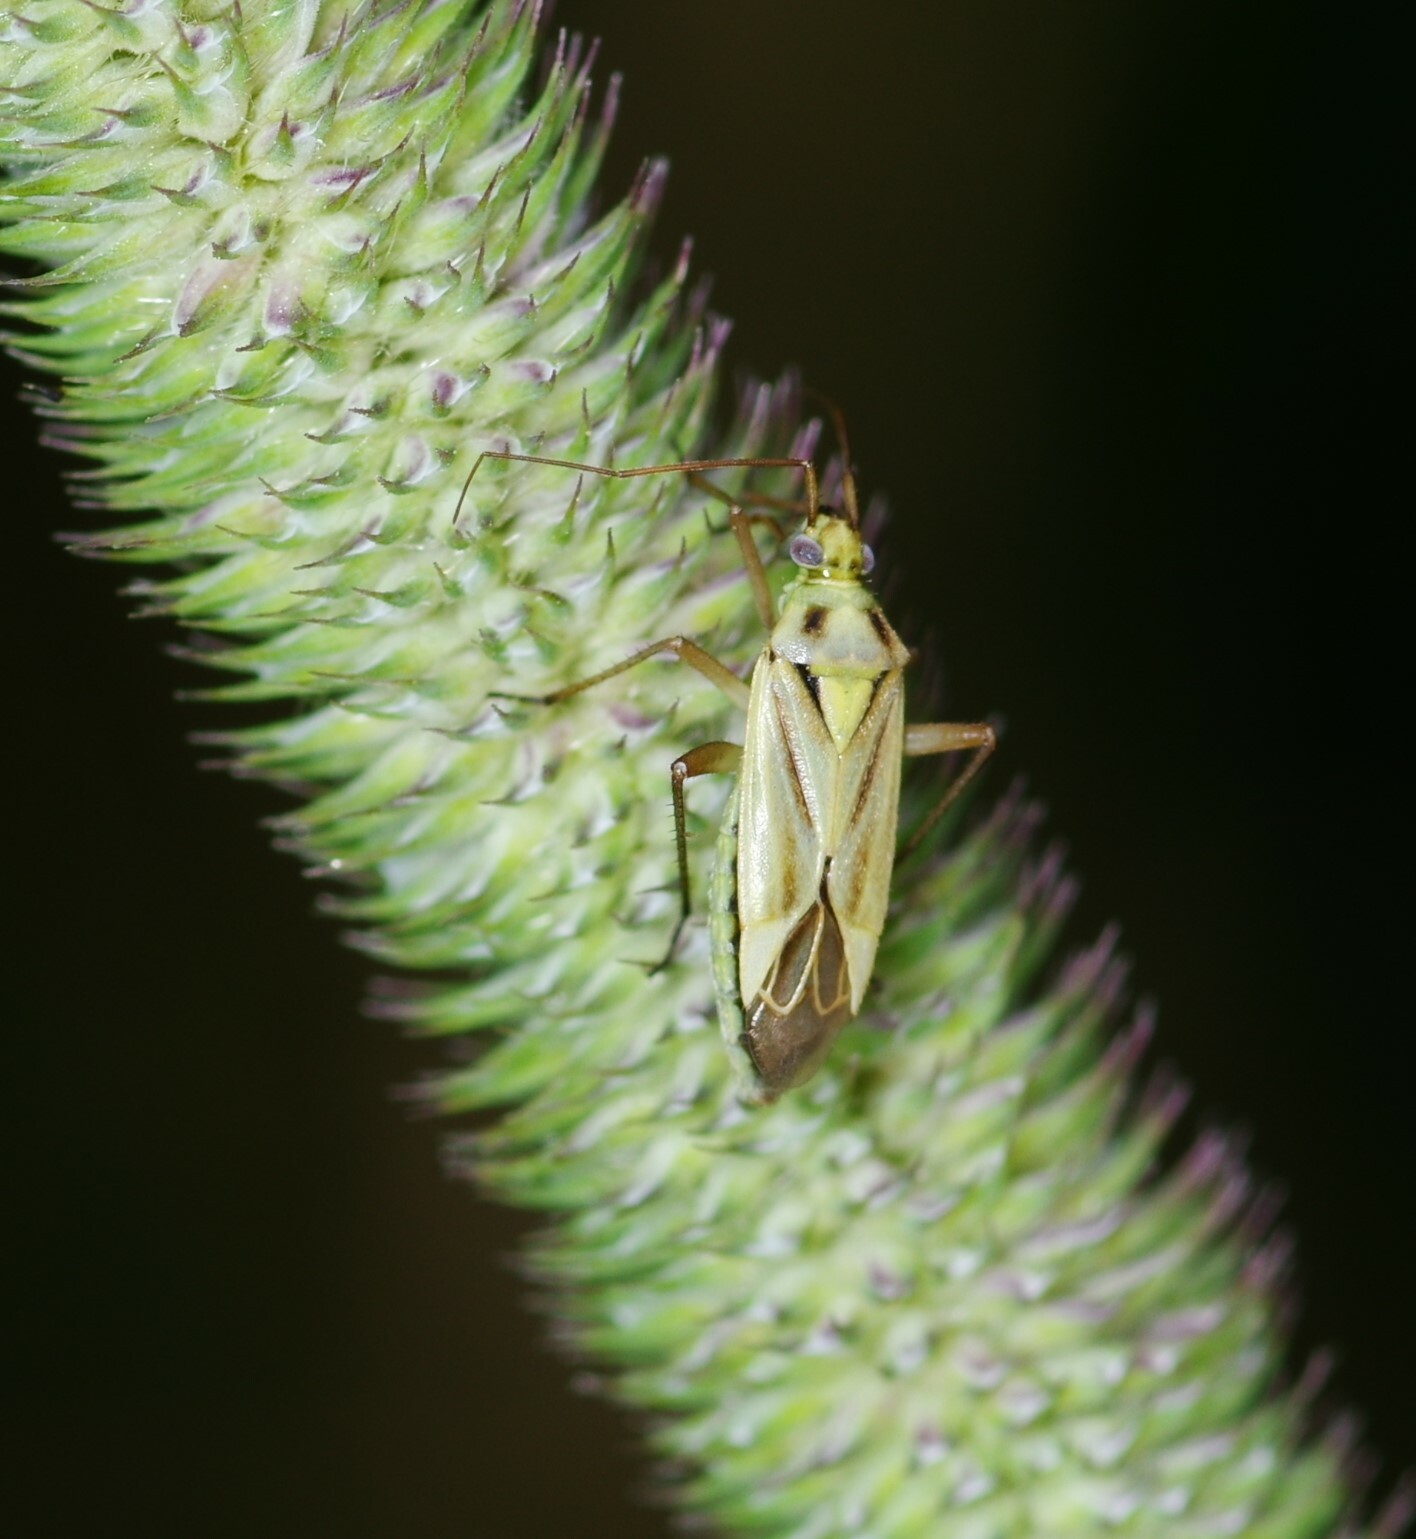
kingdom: Animalia
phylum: Arthropoda
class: Insecta
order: Hemiptera
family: Miridae
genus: Stenotus
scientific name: Stenotus binotatus
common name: Plant bug
